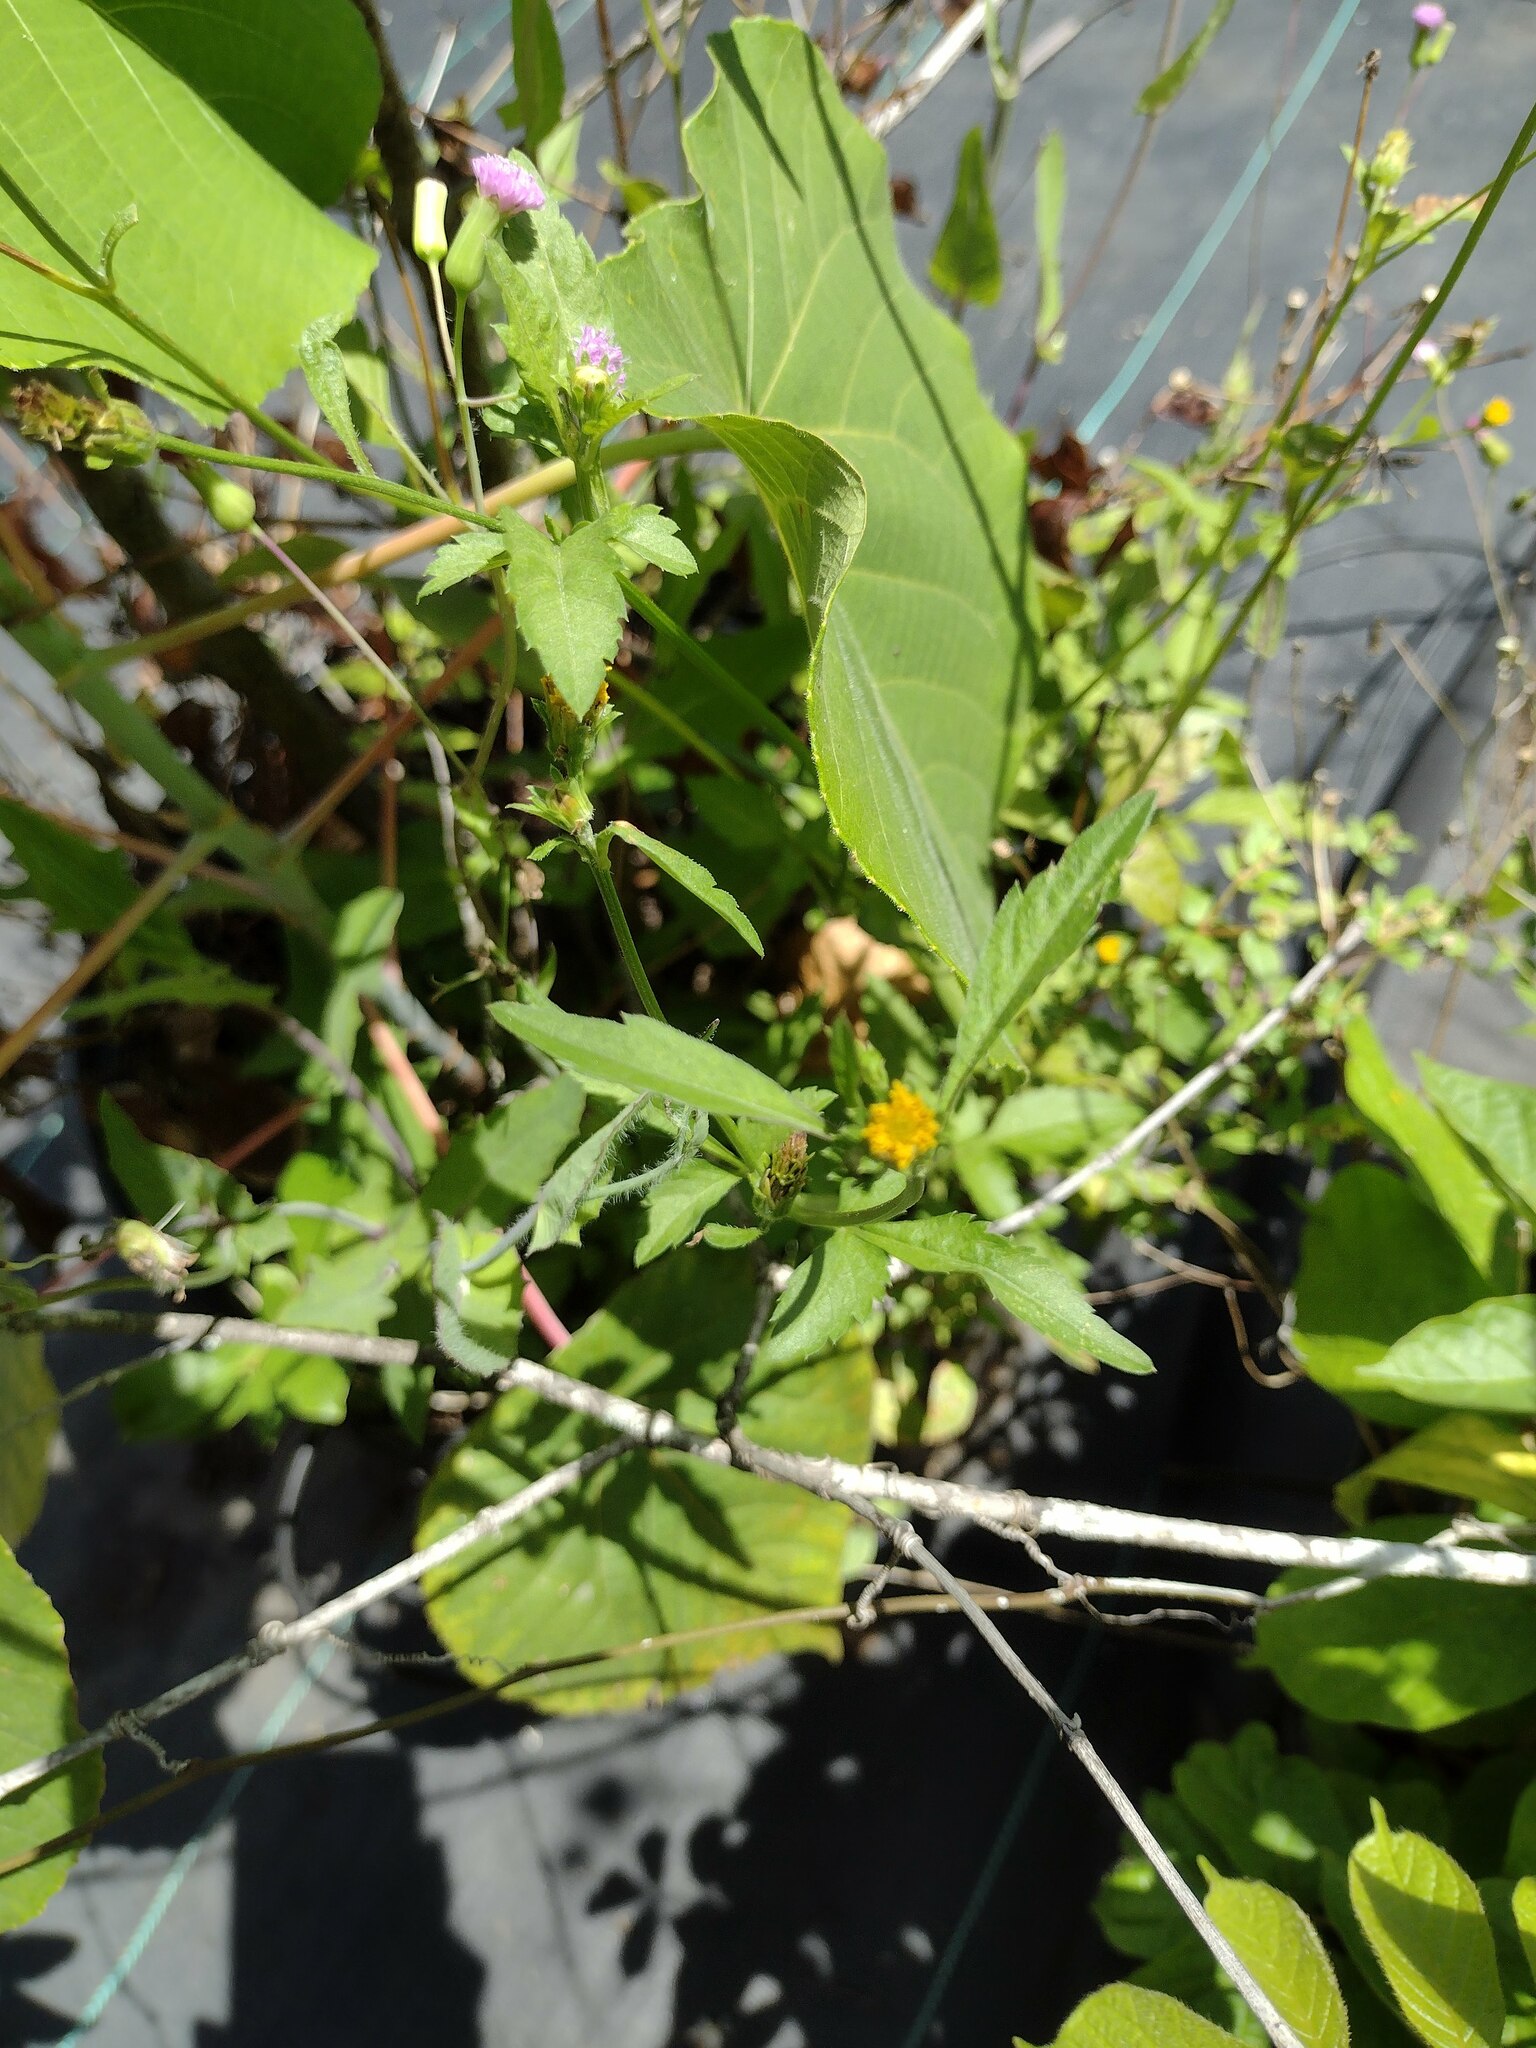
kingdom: Plantae
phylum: Tracheophyta
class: Magnoliopsida
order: Asterales
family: Asteraceae
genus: Bidens
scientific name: Bidens pilosa
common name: Black-jack
